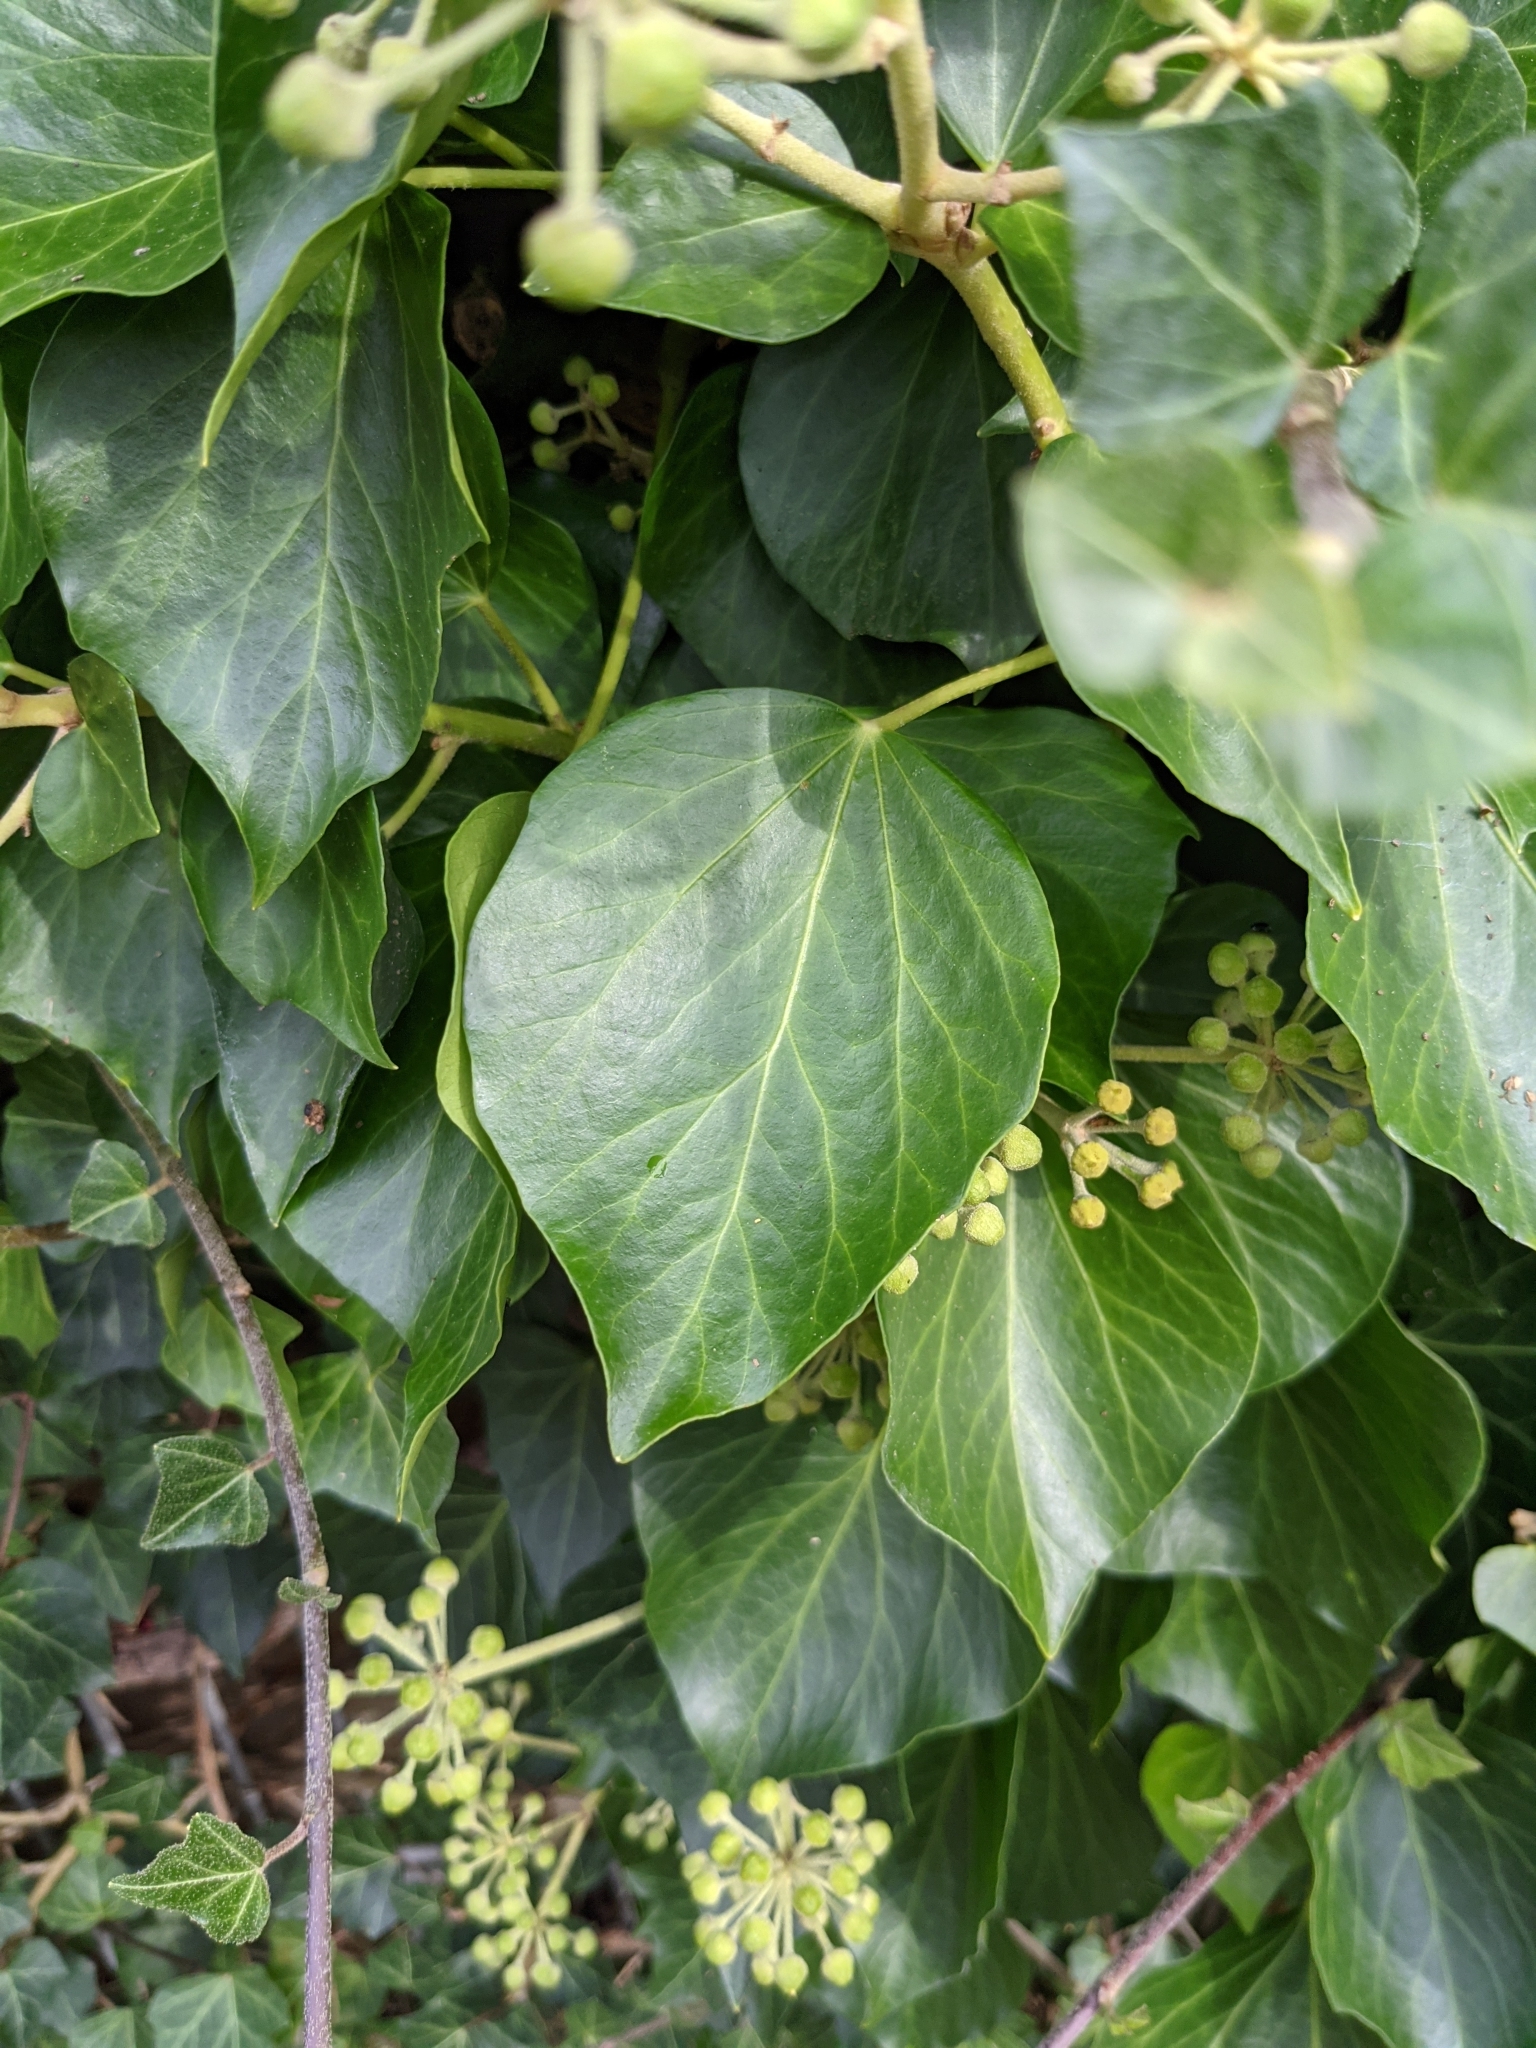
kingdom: Plantae
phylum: Tracheophyta
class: Magnoliopsida
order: Apiales
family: Araliaceae
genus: Hedera
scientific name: Hedera helix
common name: Ivy
